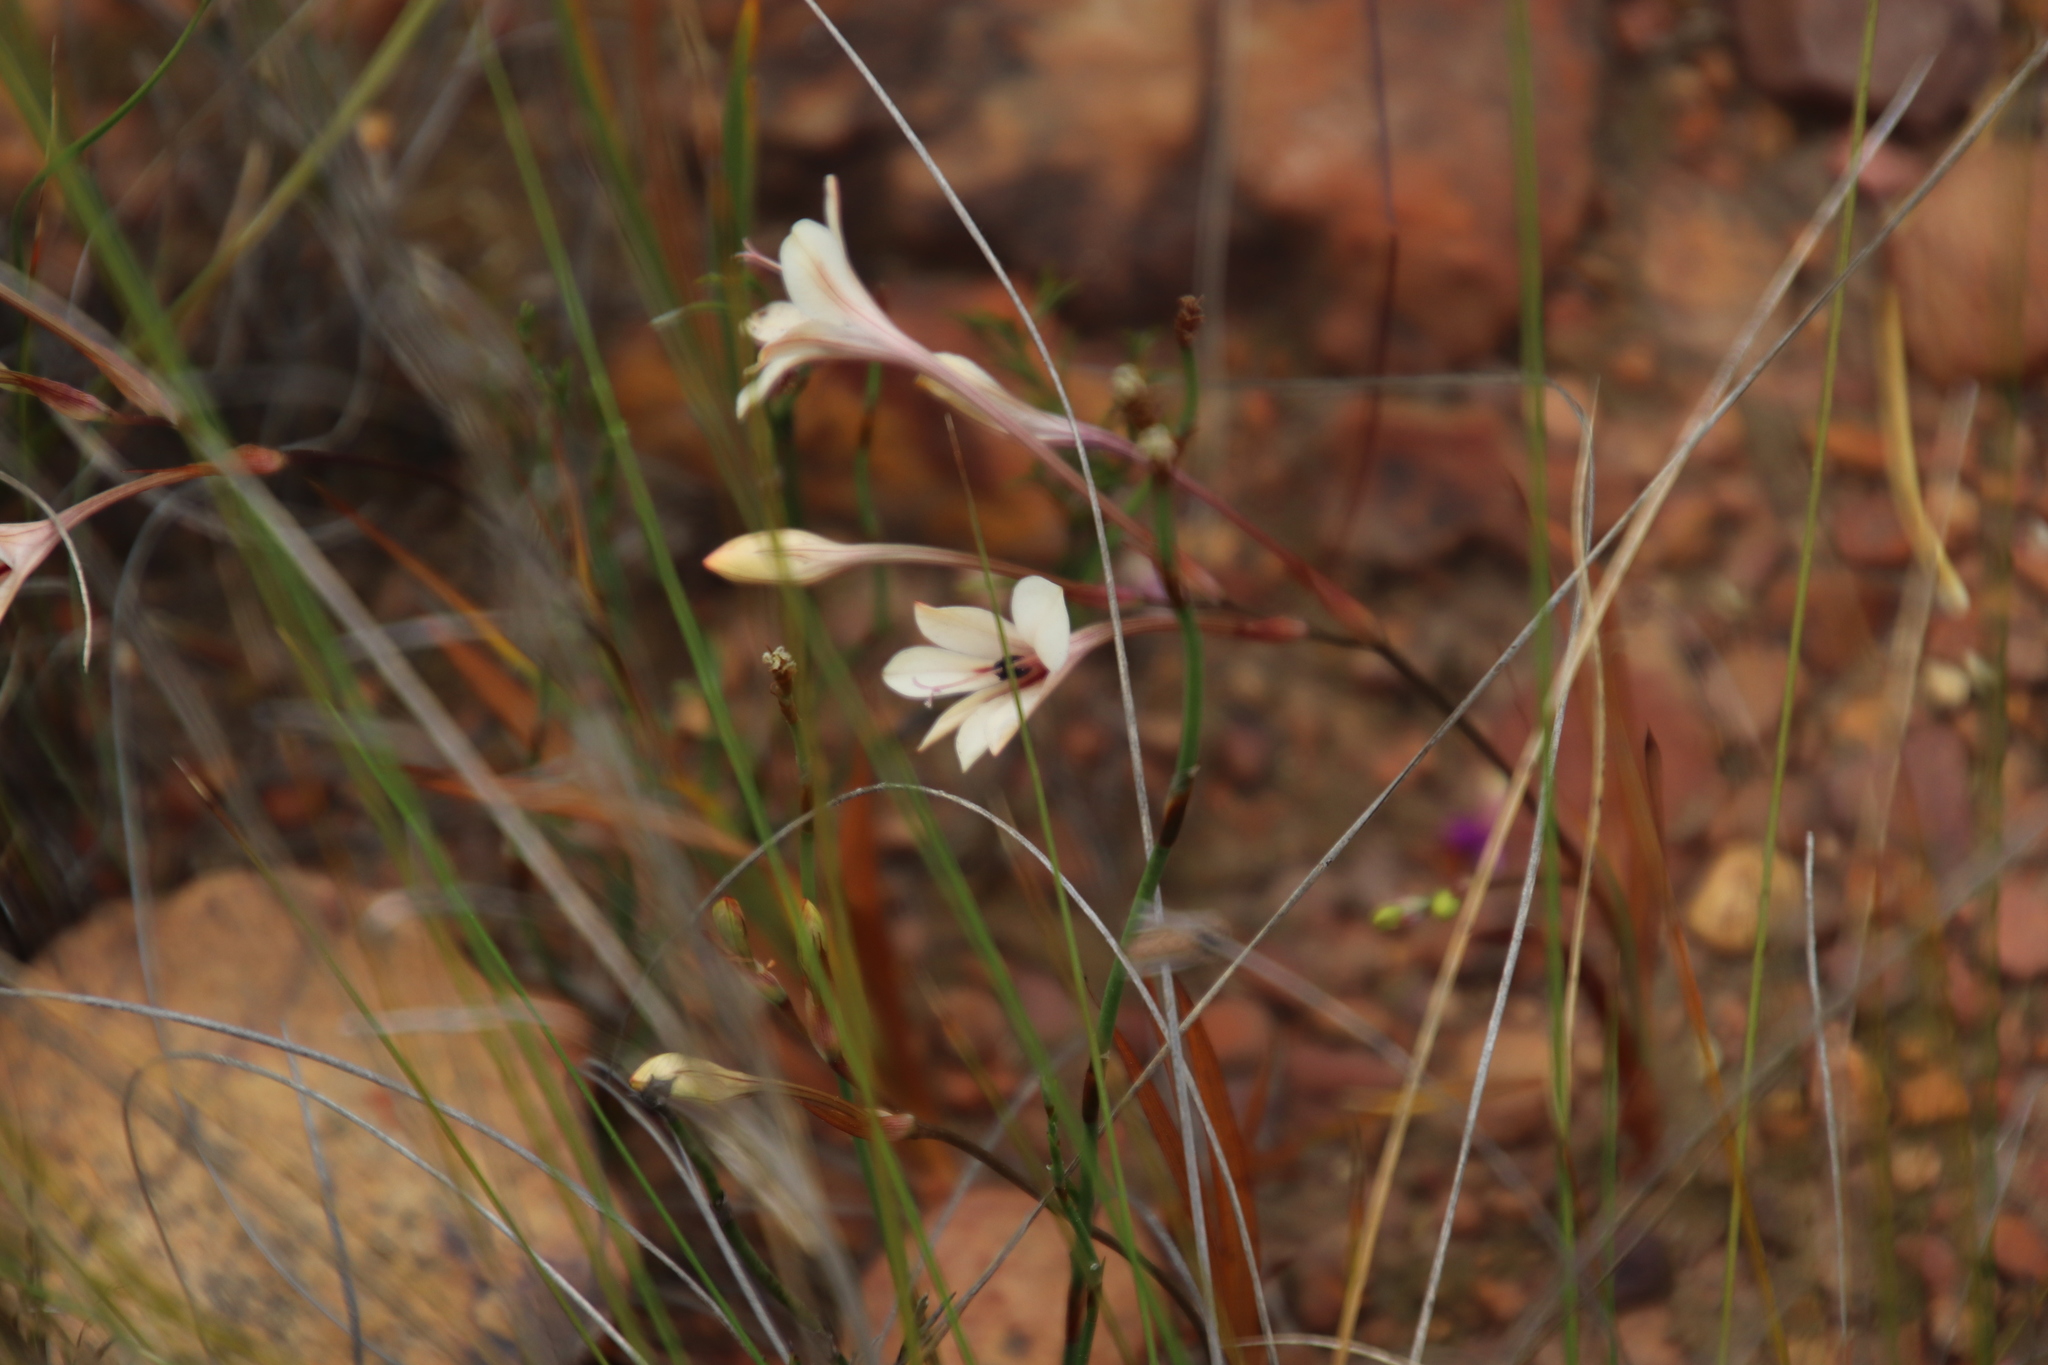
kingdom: Plantae
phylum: Tracheophyta
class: Liliopsida
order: Asparagales
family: Iridaceae
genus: Tritonia
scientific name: Tritonia cooperi
